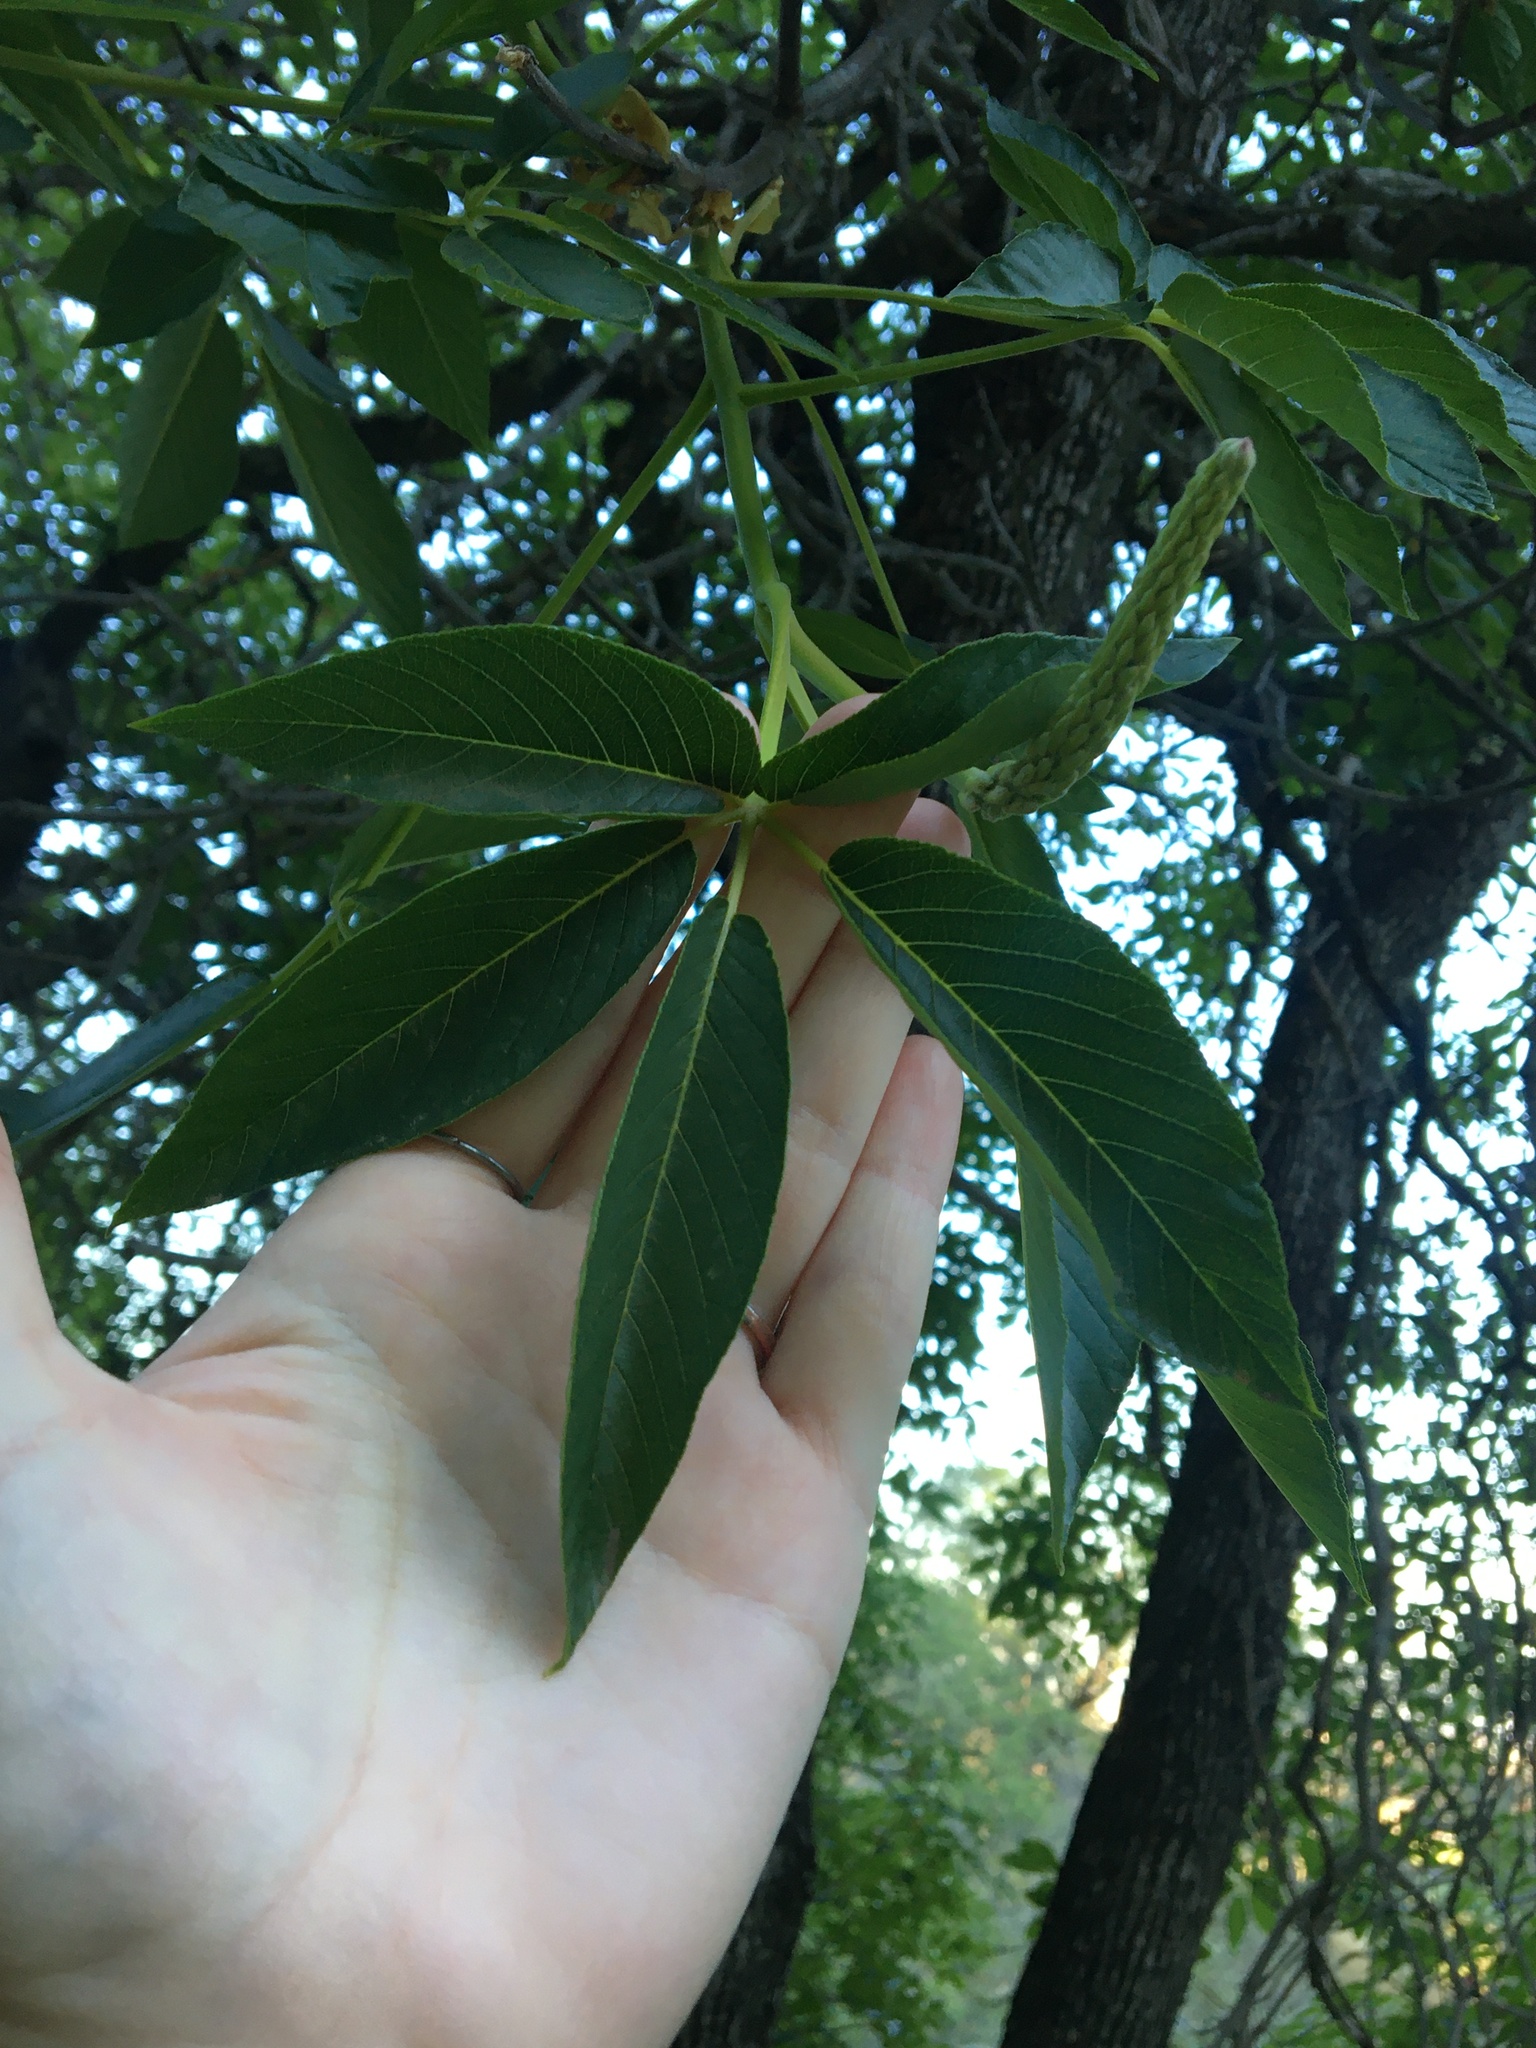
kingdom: Plantae
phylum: Tracheophyta
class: Magnoliopsida
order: Sapindales
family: Sapindaceae
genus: Aesculus
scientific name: Aesculus californica
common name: California buckeye
